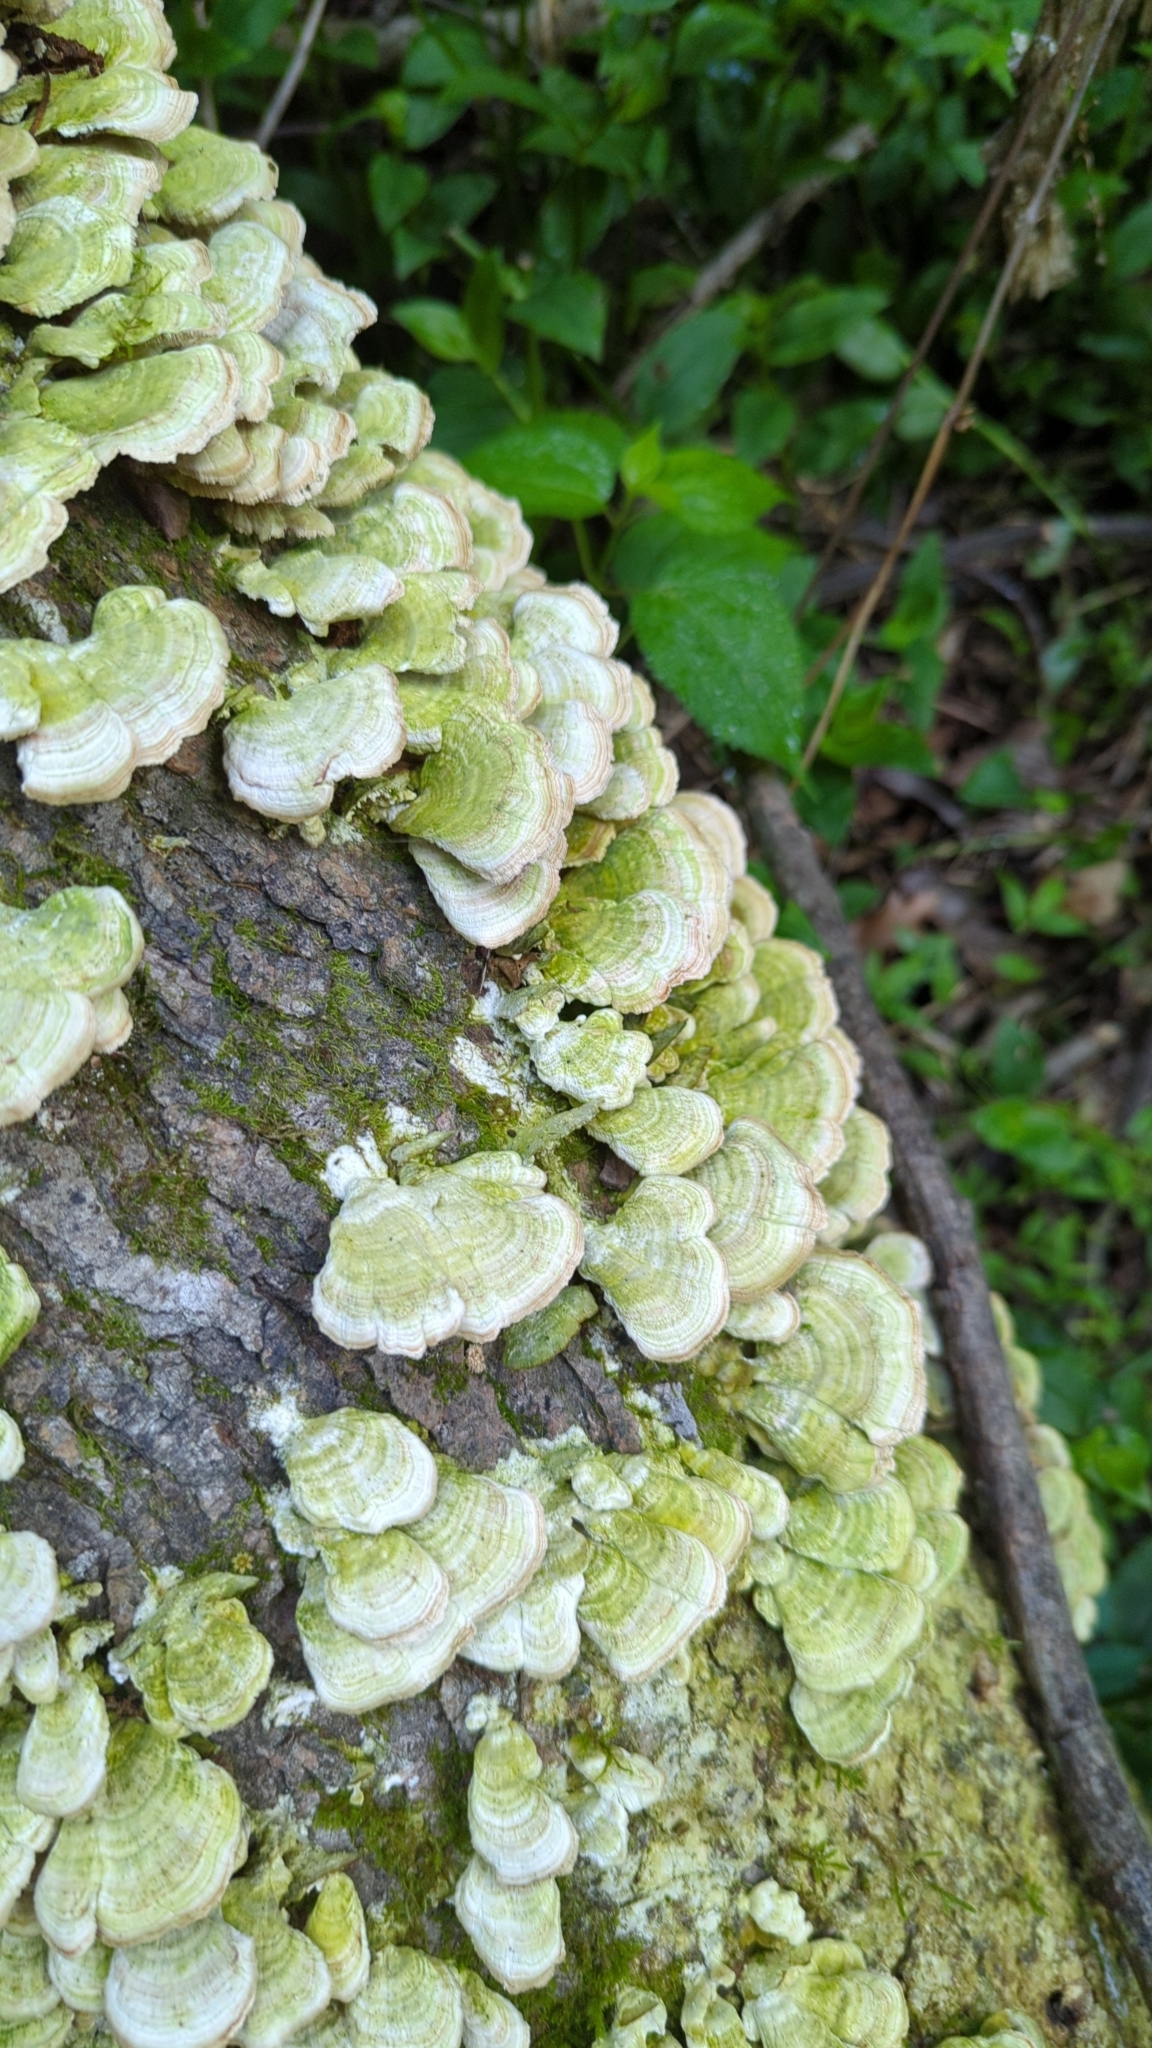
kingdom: Fungi
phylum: Basidiomycota
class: Agaricomycetes
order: Hymenochaetales
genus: Trichaptum
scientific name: Trichaptum biforme
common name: Violet-toothed polypore
